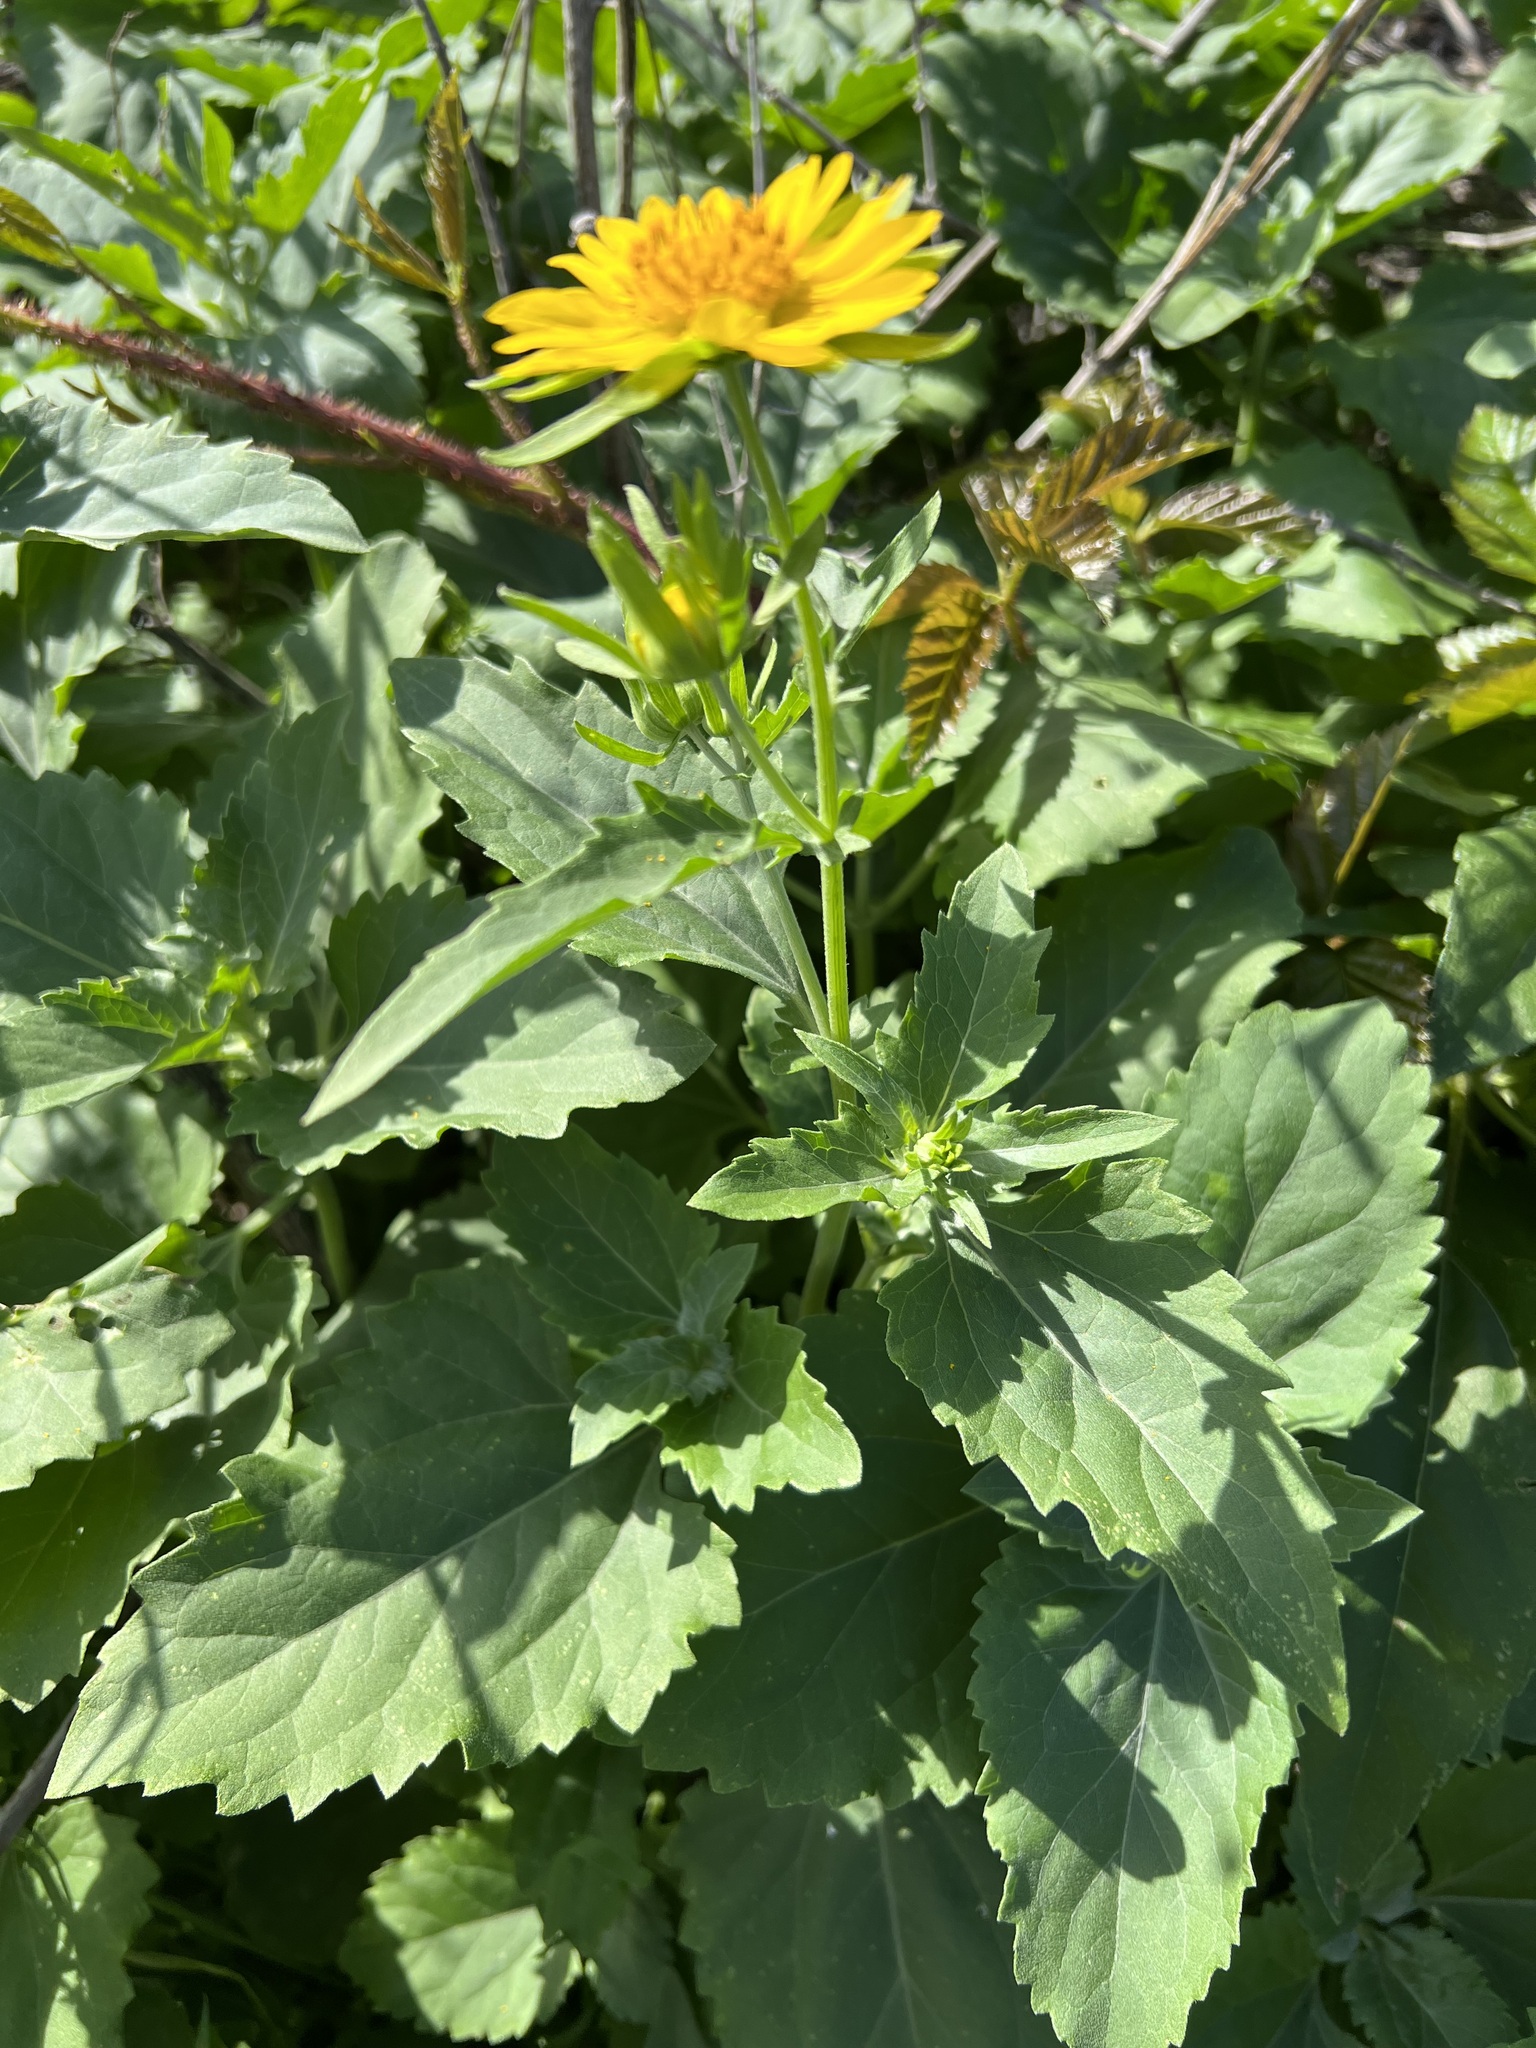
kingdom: Plantae
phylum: Tracheophyta
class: Magnoliopsida
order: Asterales
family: Asteraceae
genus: Verbesina
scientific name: Verbesina encelioides
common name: Golden crownbeard
